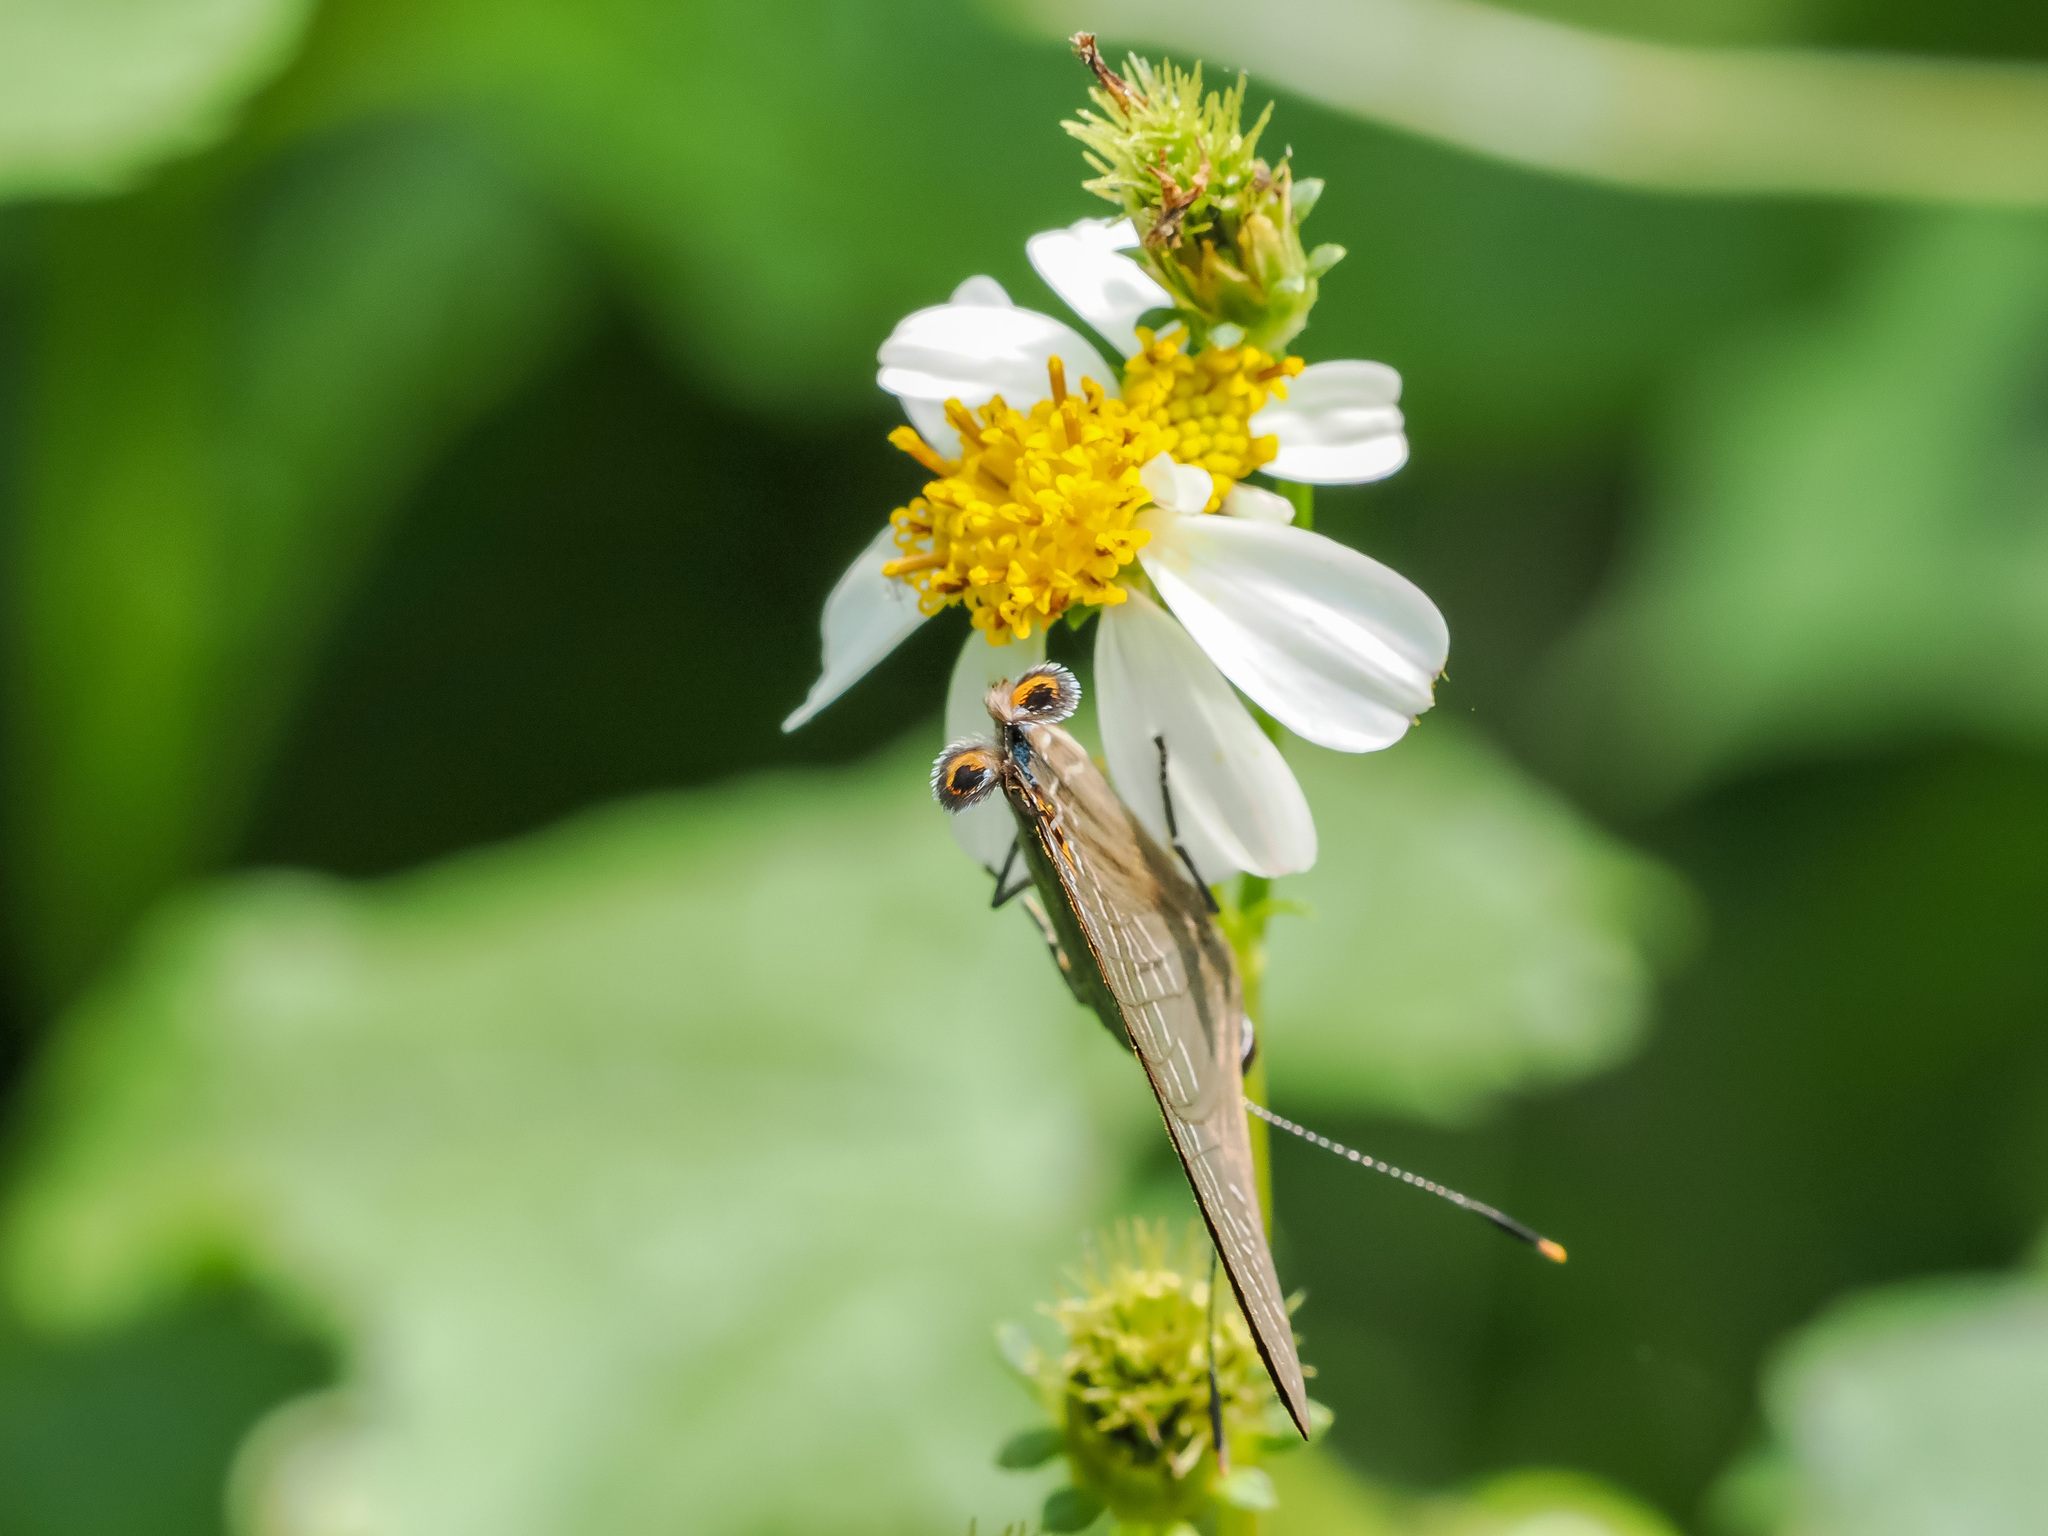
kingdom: Animalia
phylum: Arthropoda
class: Insecta
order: Lepidoptera
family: Lycaenidae
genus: Deudorix
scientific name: Deudorix epijarbas
